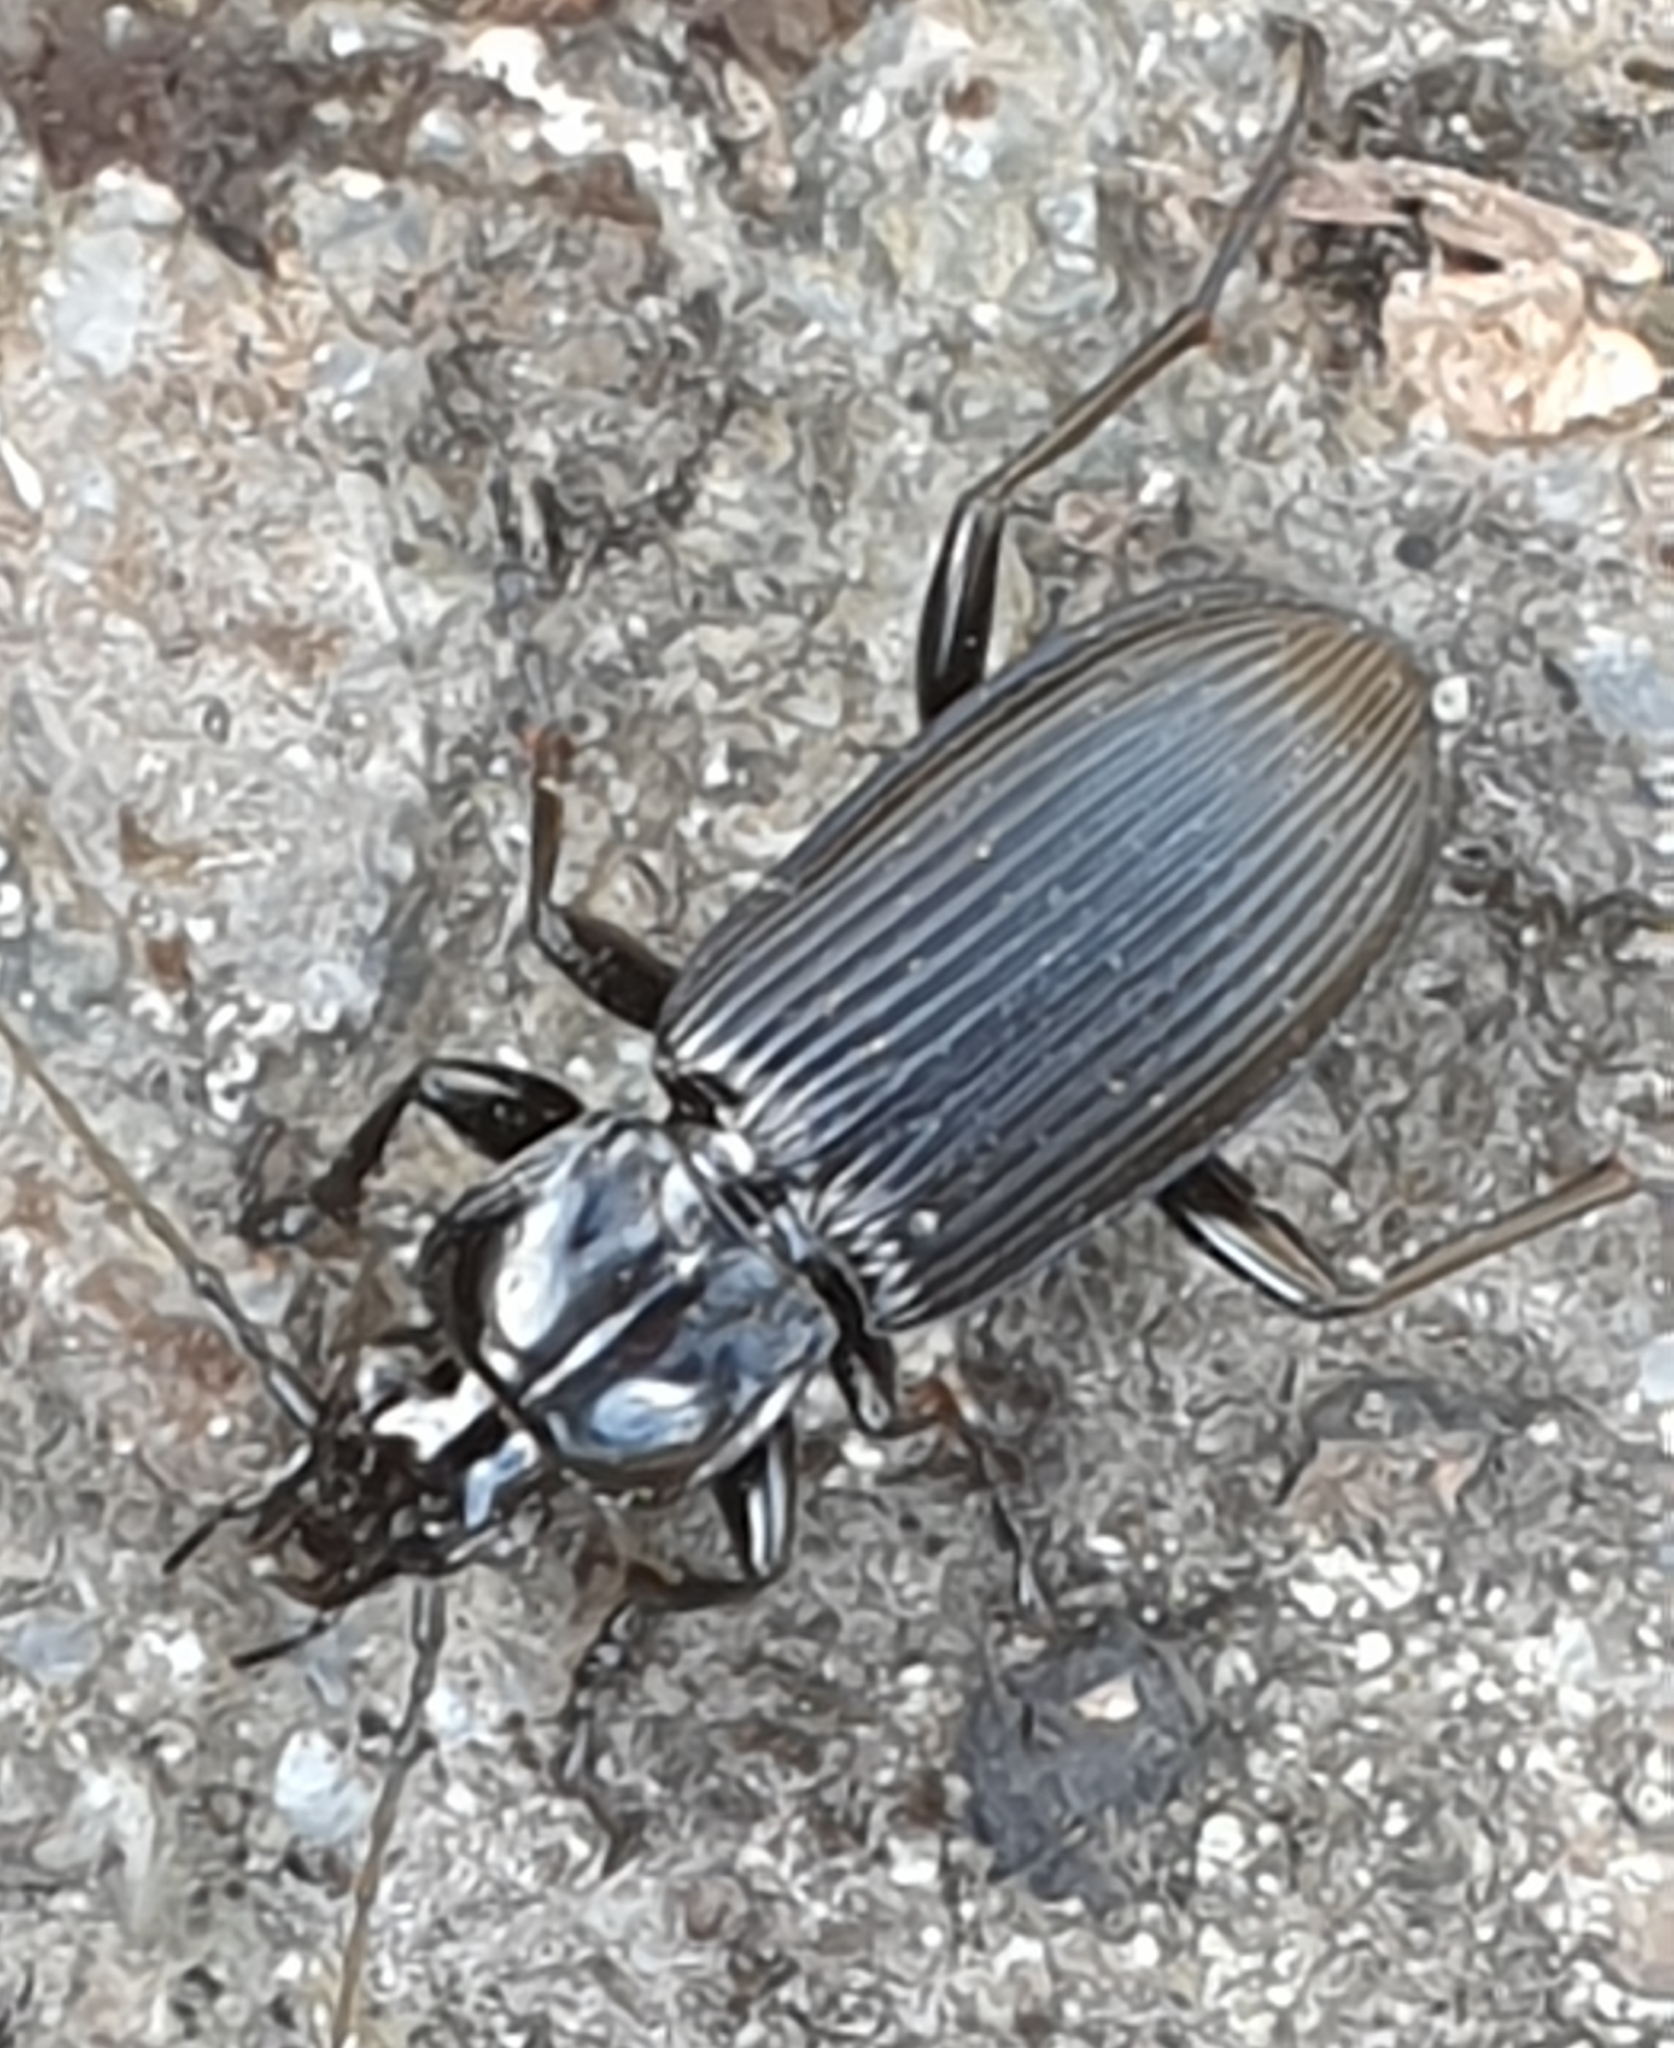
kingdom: Animalia
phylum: Arthropoda
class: Insecta
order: Coleoptera
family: Carabidae
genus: Pterostichus
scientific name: Pterostichus niger
